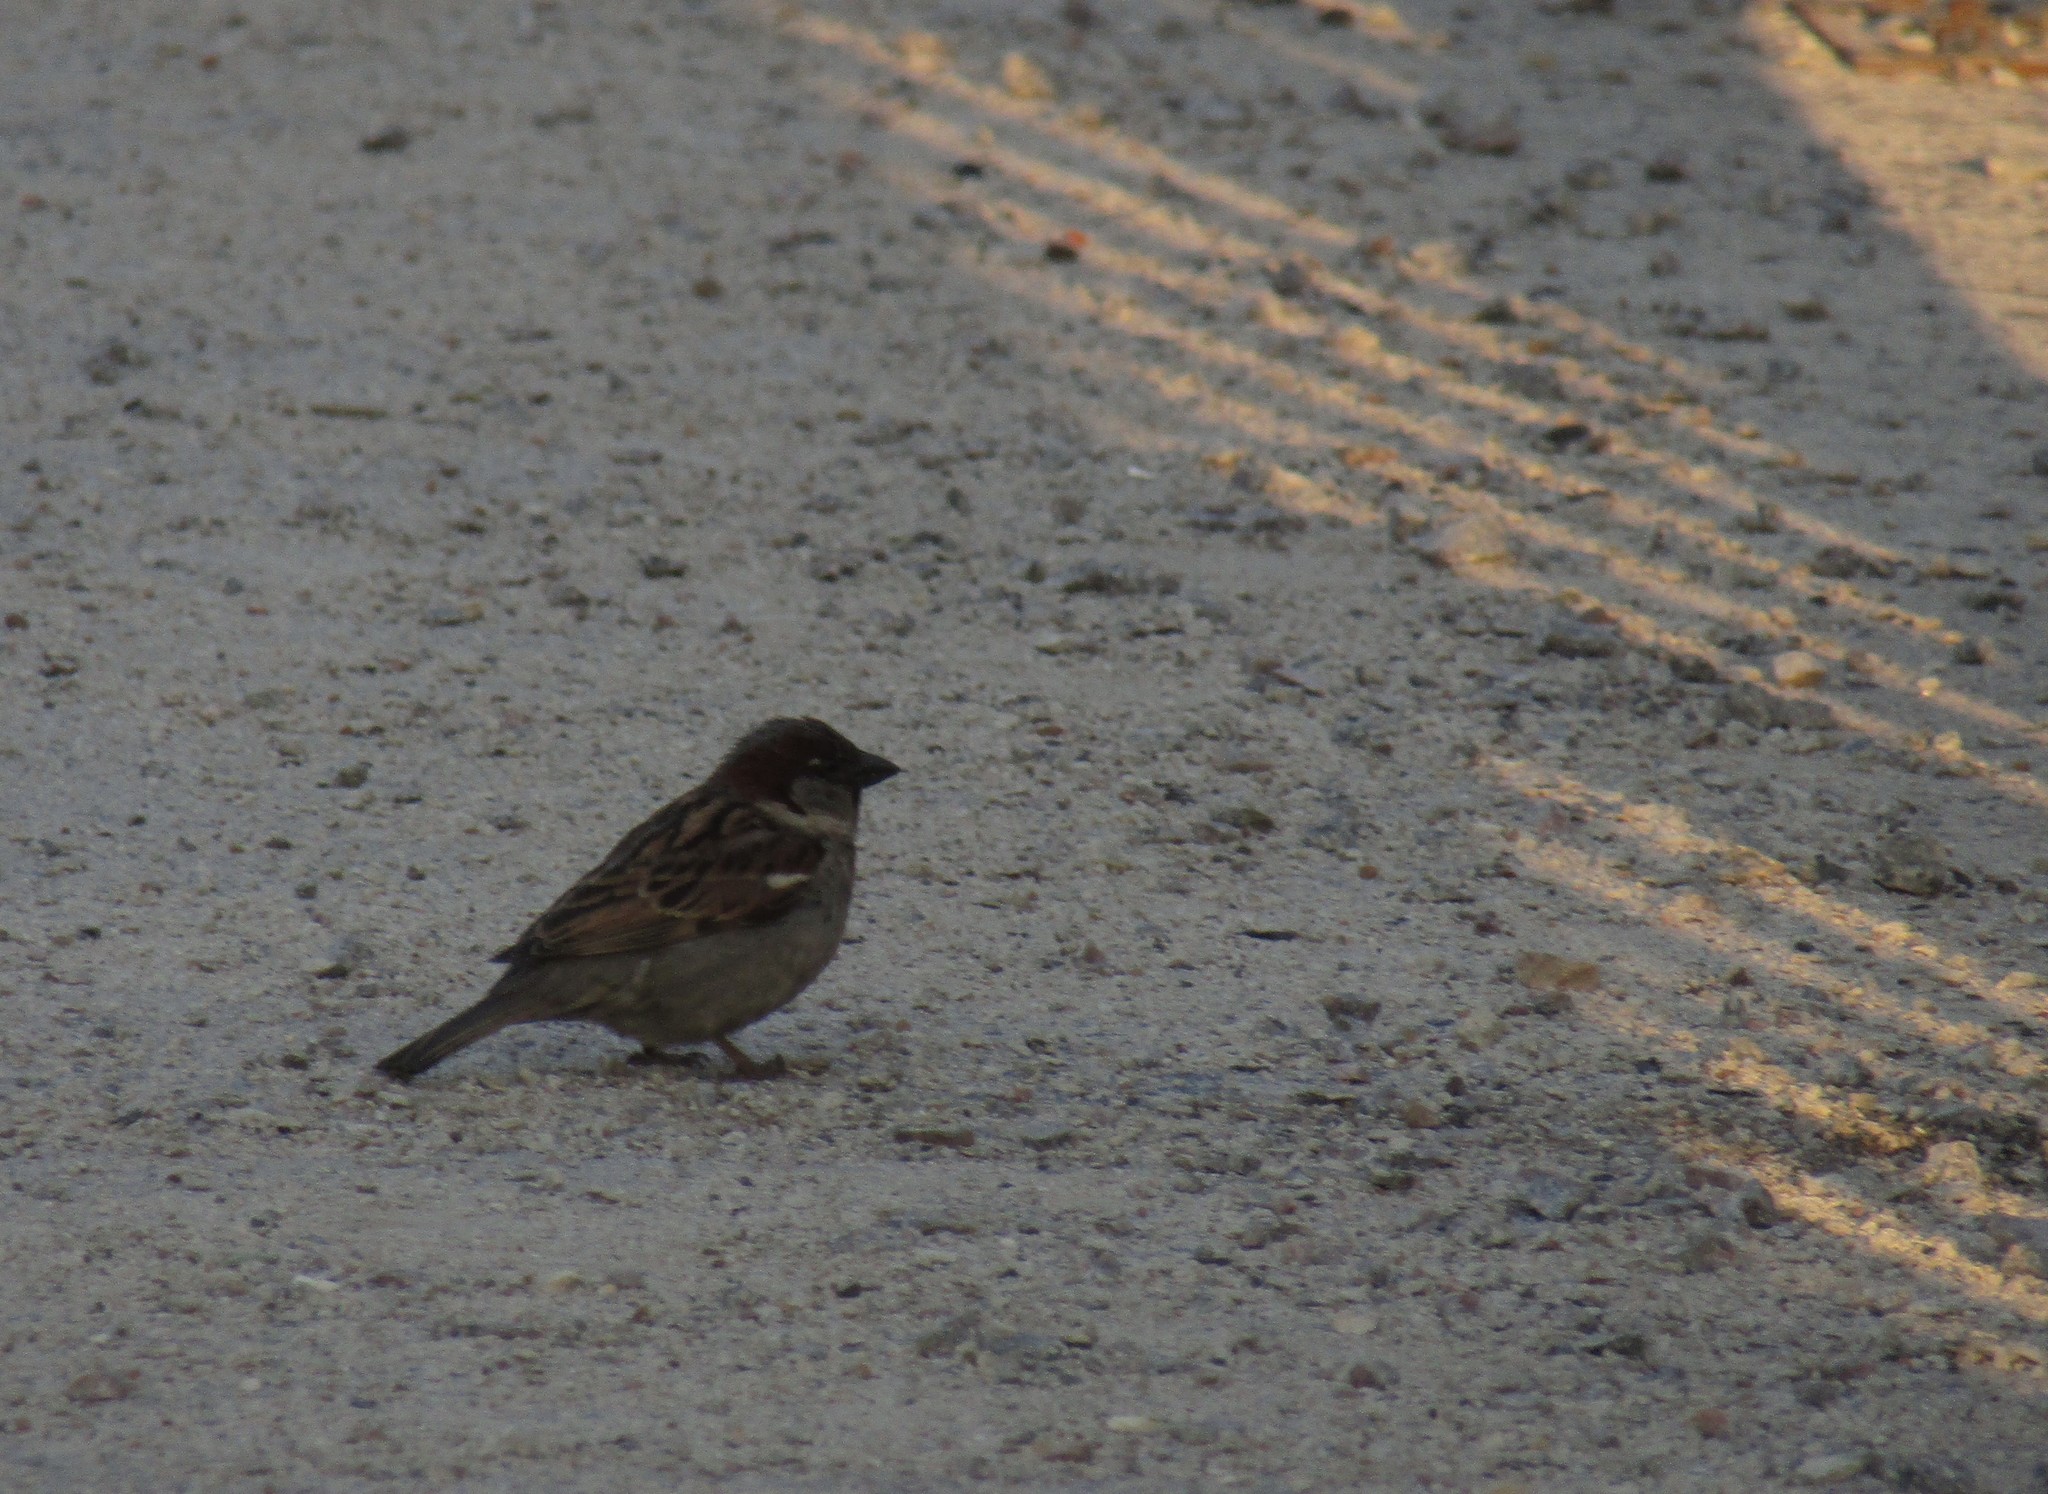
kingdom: Animalia
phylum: Chordata
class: Aves
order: Passeriformes
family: Passeridae
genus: Passer
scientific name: Passer domesticus
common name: House sparrow
